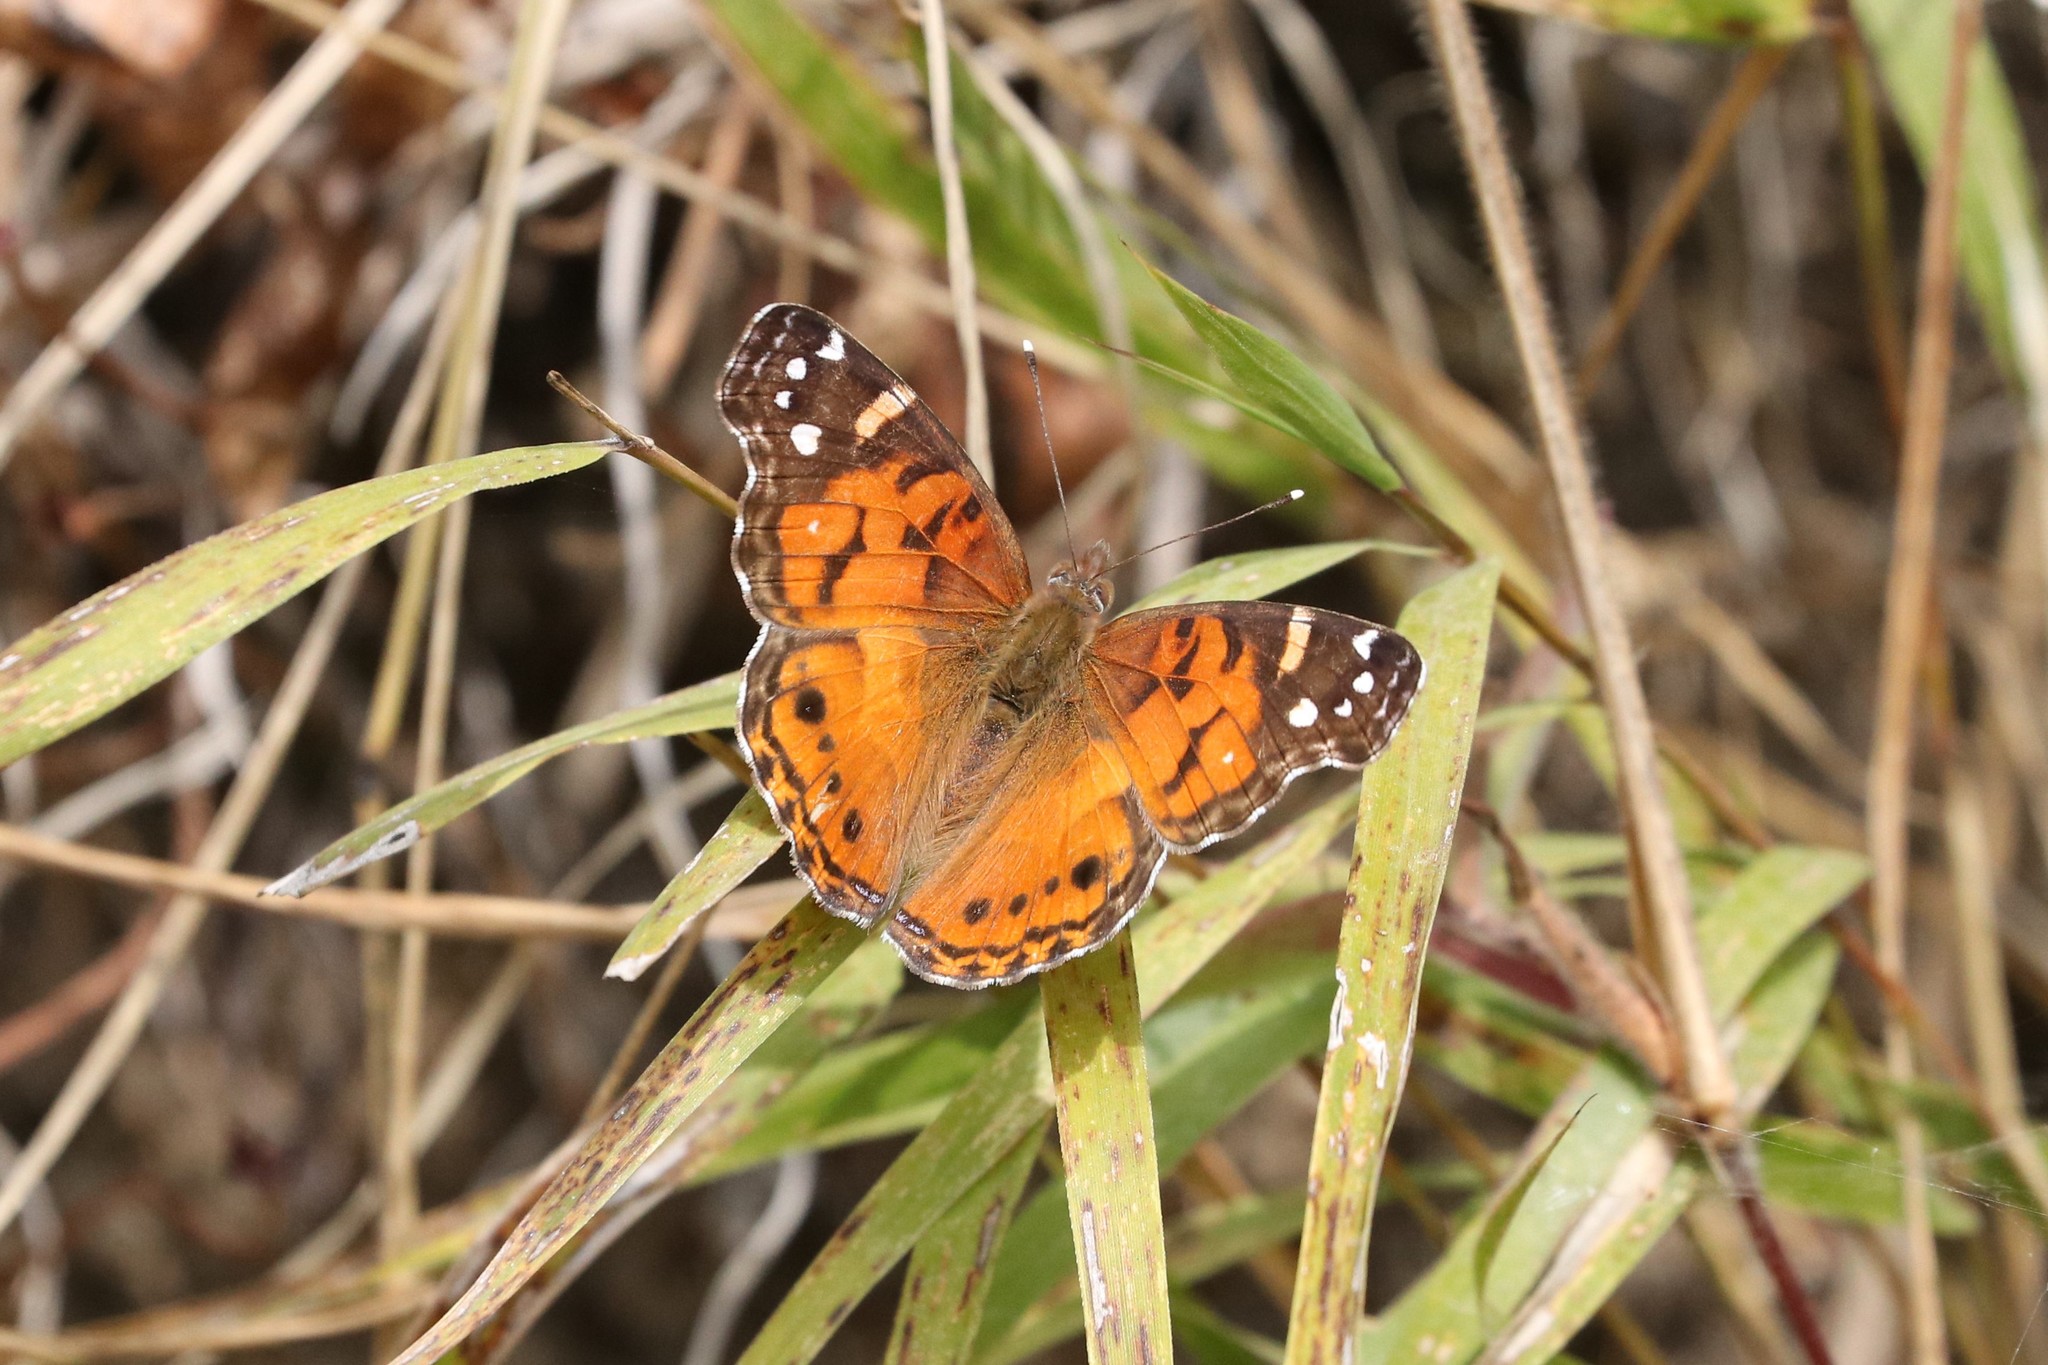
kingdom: Animalia
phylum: Arthropoda
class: Insecta
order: Lepidoptera
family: Nymphalidae
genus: Vanessa
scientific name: Vanessa virginiensis
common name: American lady
